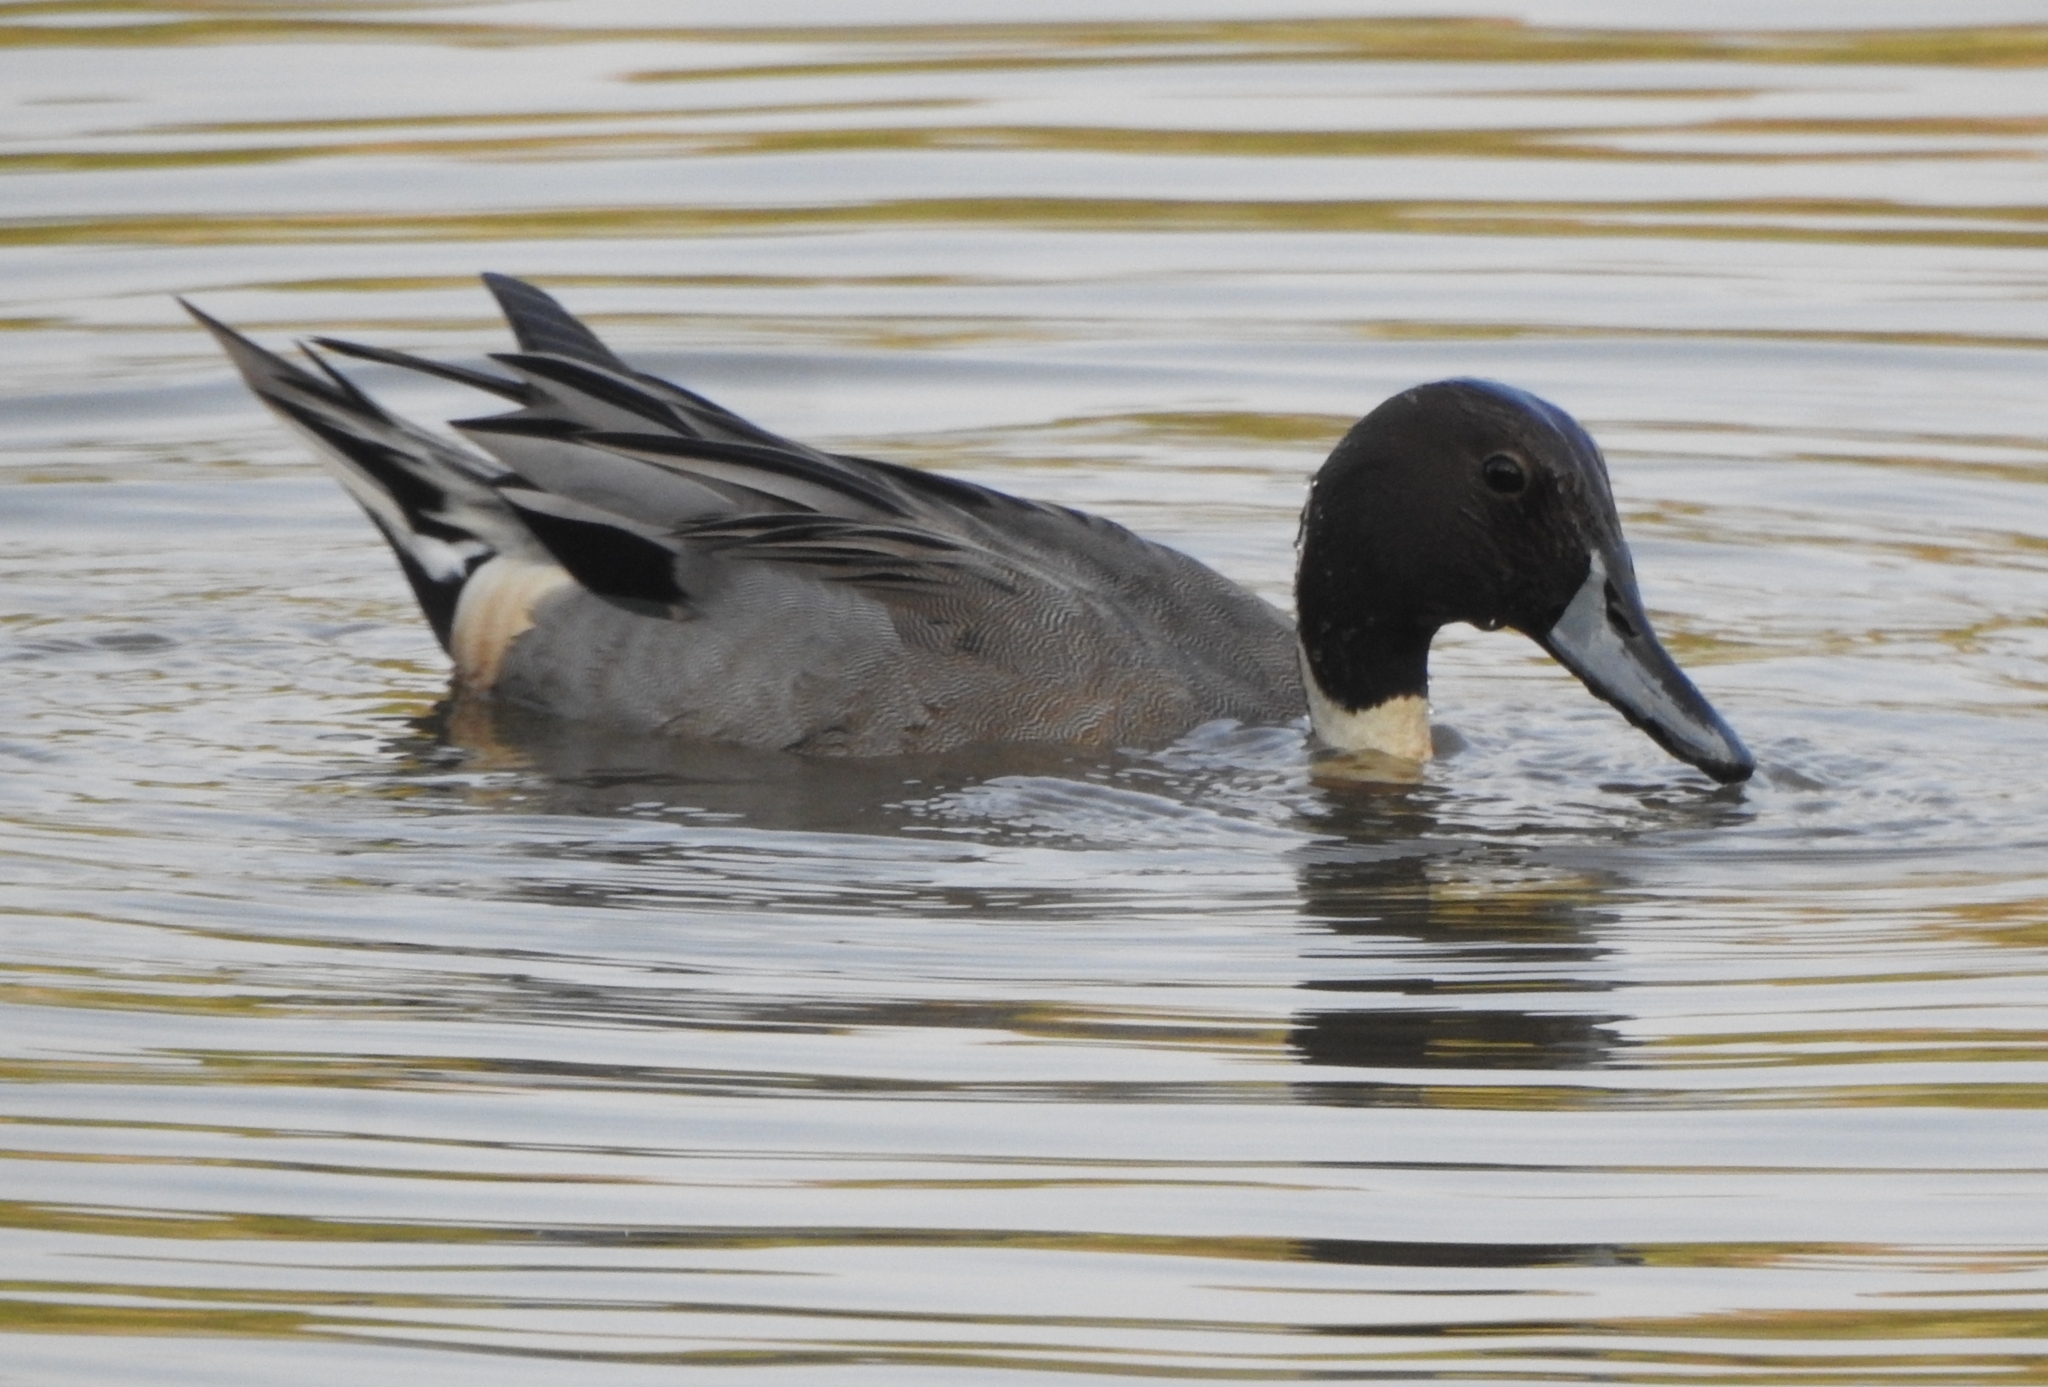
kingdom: Animalia
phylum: Chordata
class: Aves
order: Anseriformes
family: Anatidae
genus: Anas
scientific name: Anas acuta
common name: Northern pintail
